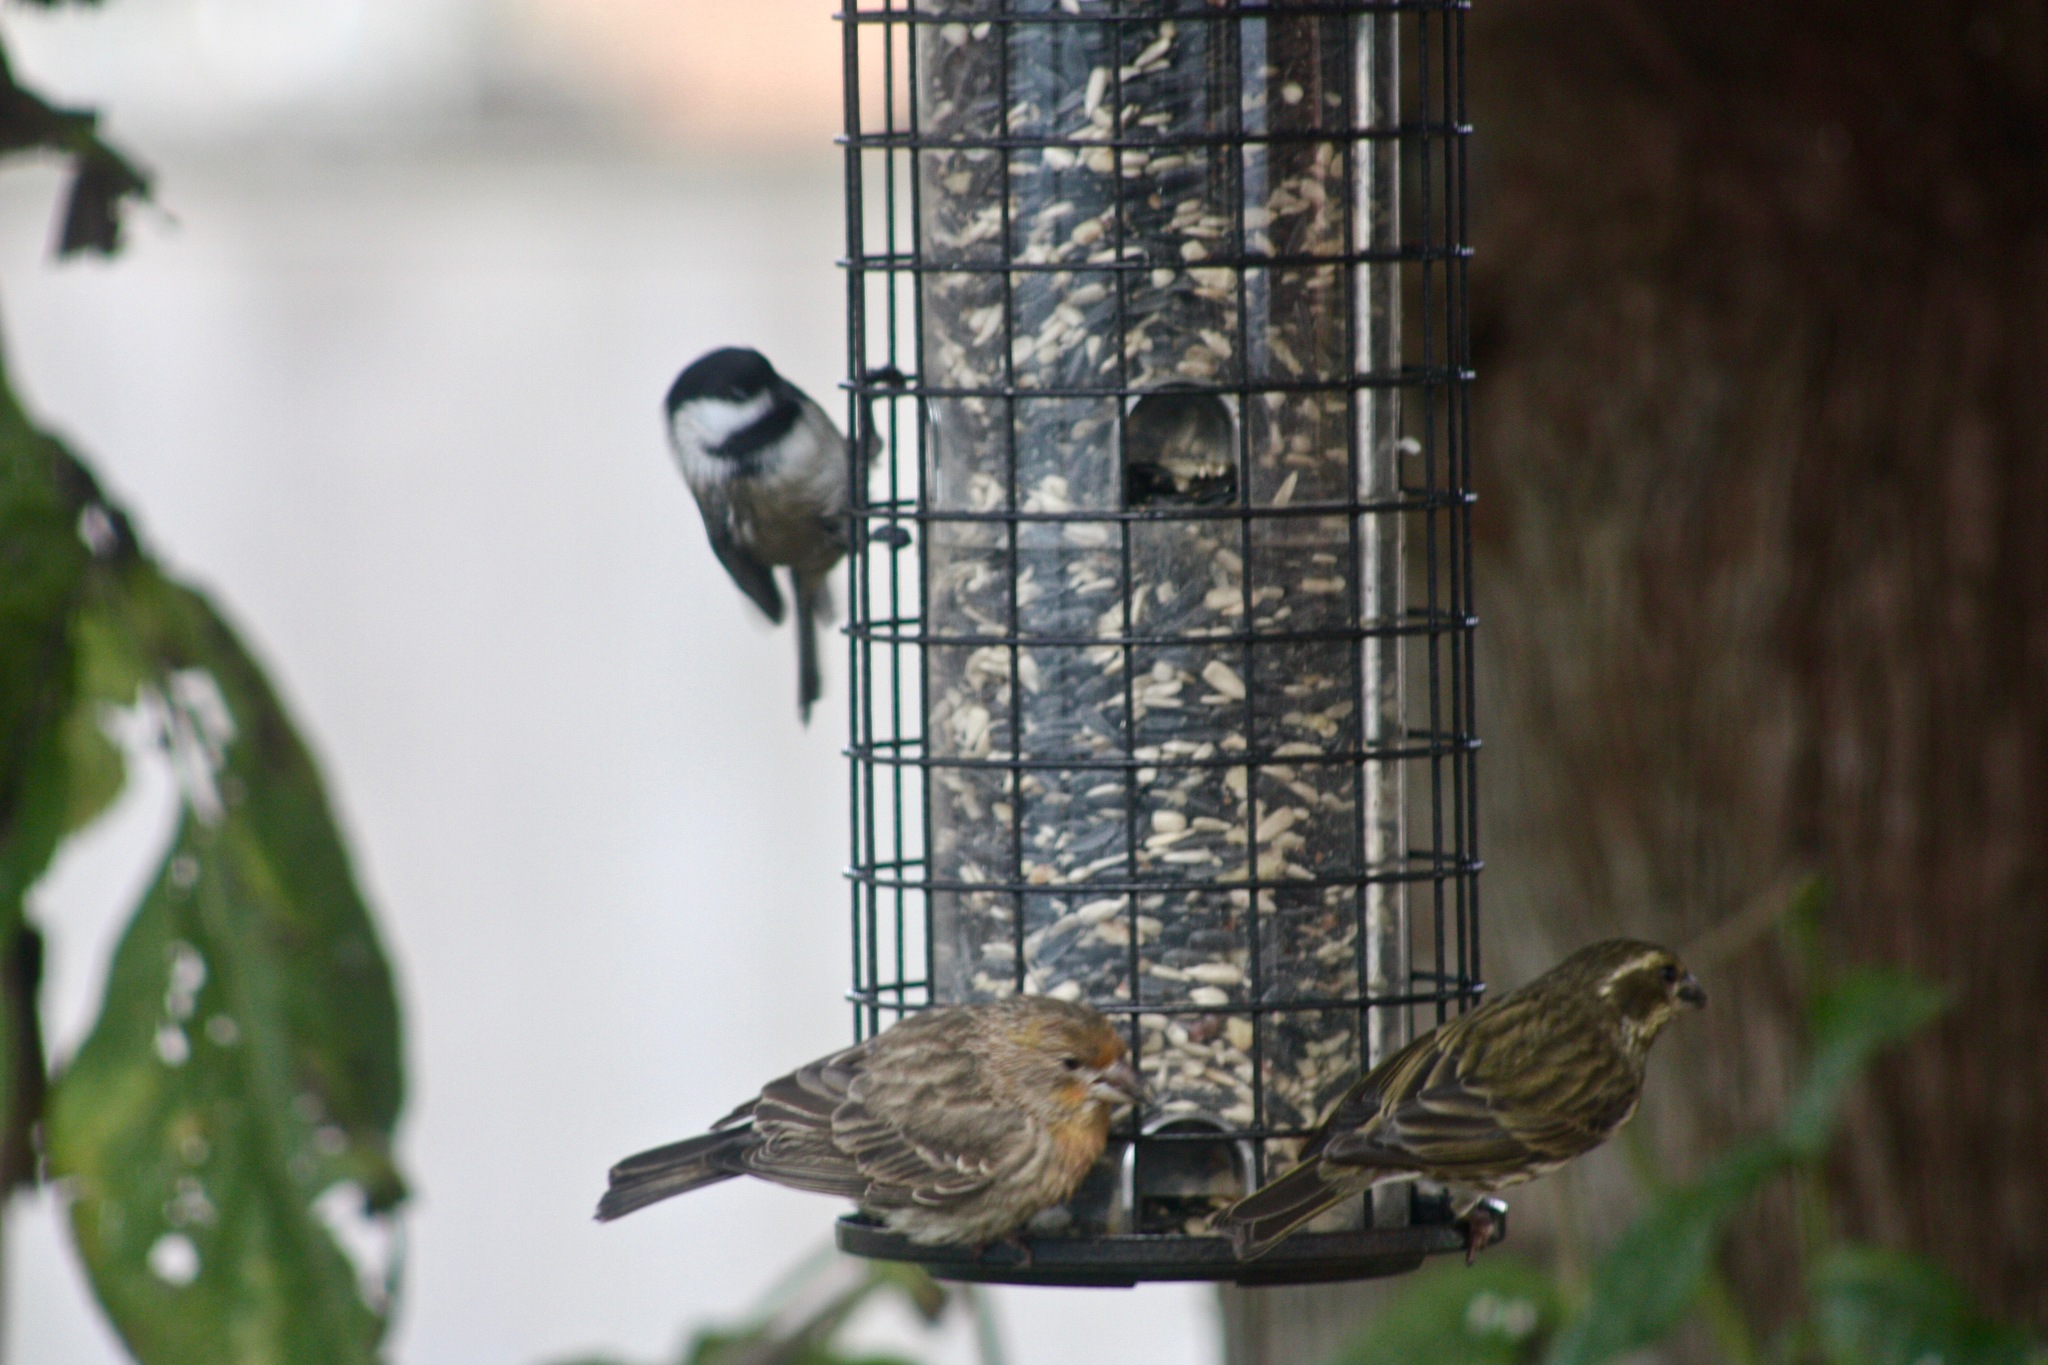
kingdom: Animalia
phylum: Chordata
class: Aves
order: Passeriformes
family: Fringillidae
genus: Haemorhous
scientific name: Haemorhous mexicanus
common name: House finch
